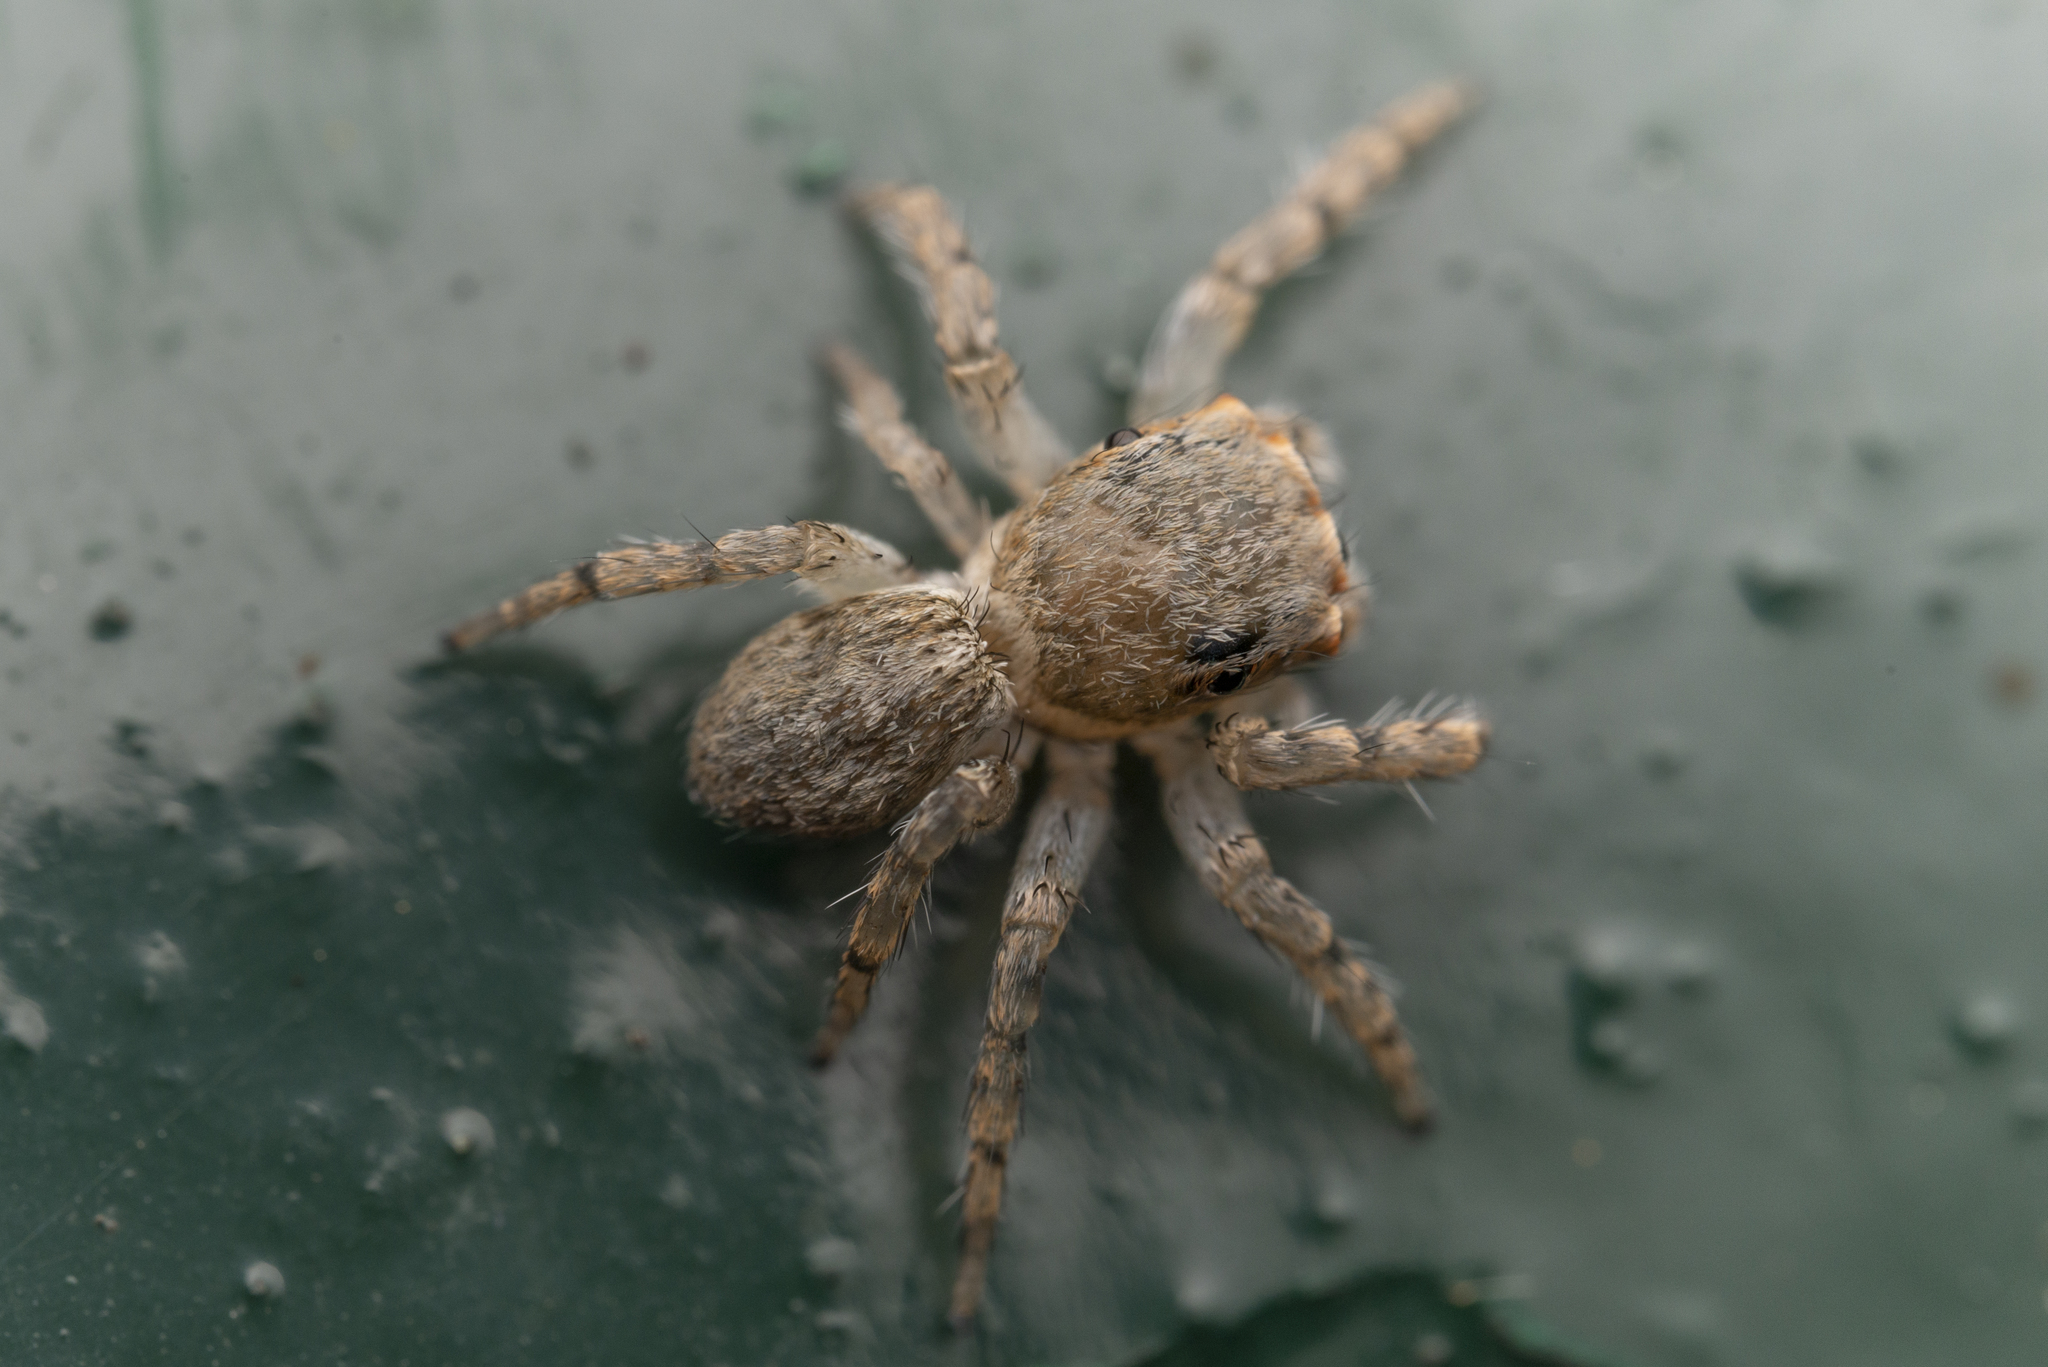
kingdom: Animalia
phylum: Arthropoda
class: Arachnida
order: Araneae
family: Salticidae
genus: Cytaea
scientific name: Cytaea maoming
